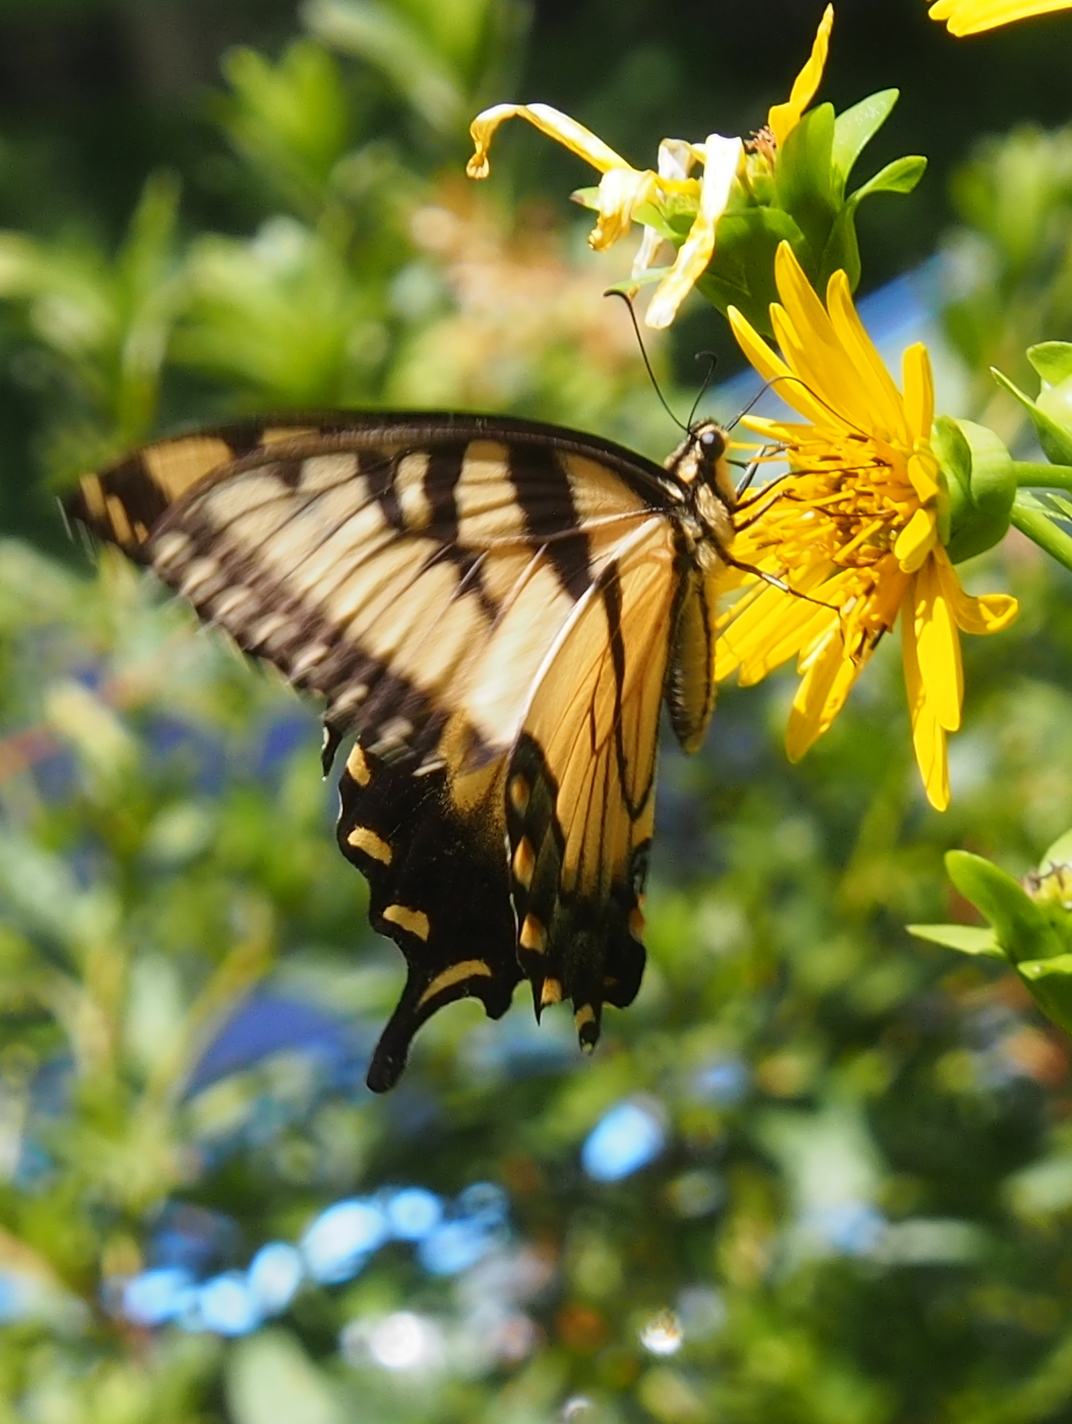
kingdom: Animalia
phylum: Arthropoda
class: Insecta
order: Lepidoptera
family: Papilionidae
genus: Papilio
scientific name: Papilio glaucus
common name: Tiger swallowtail
